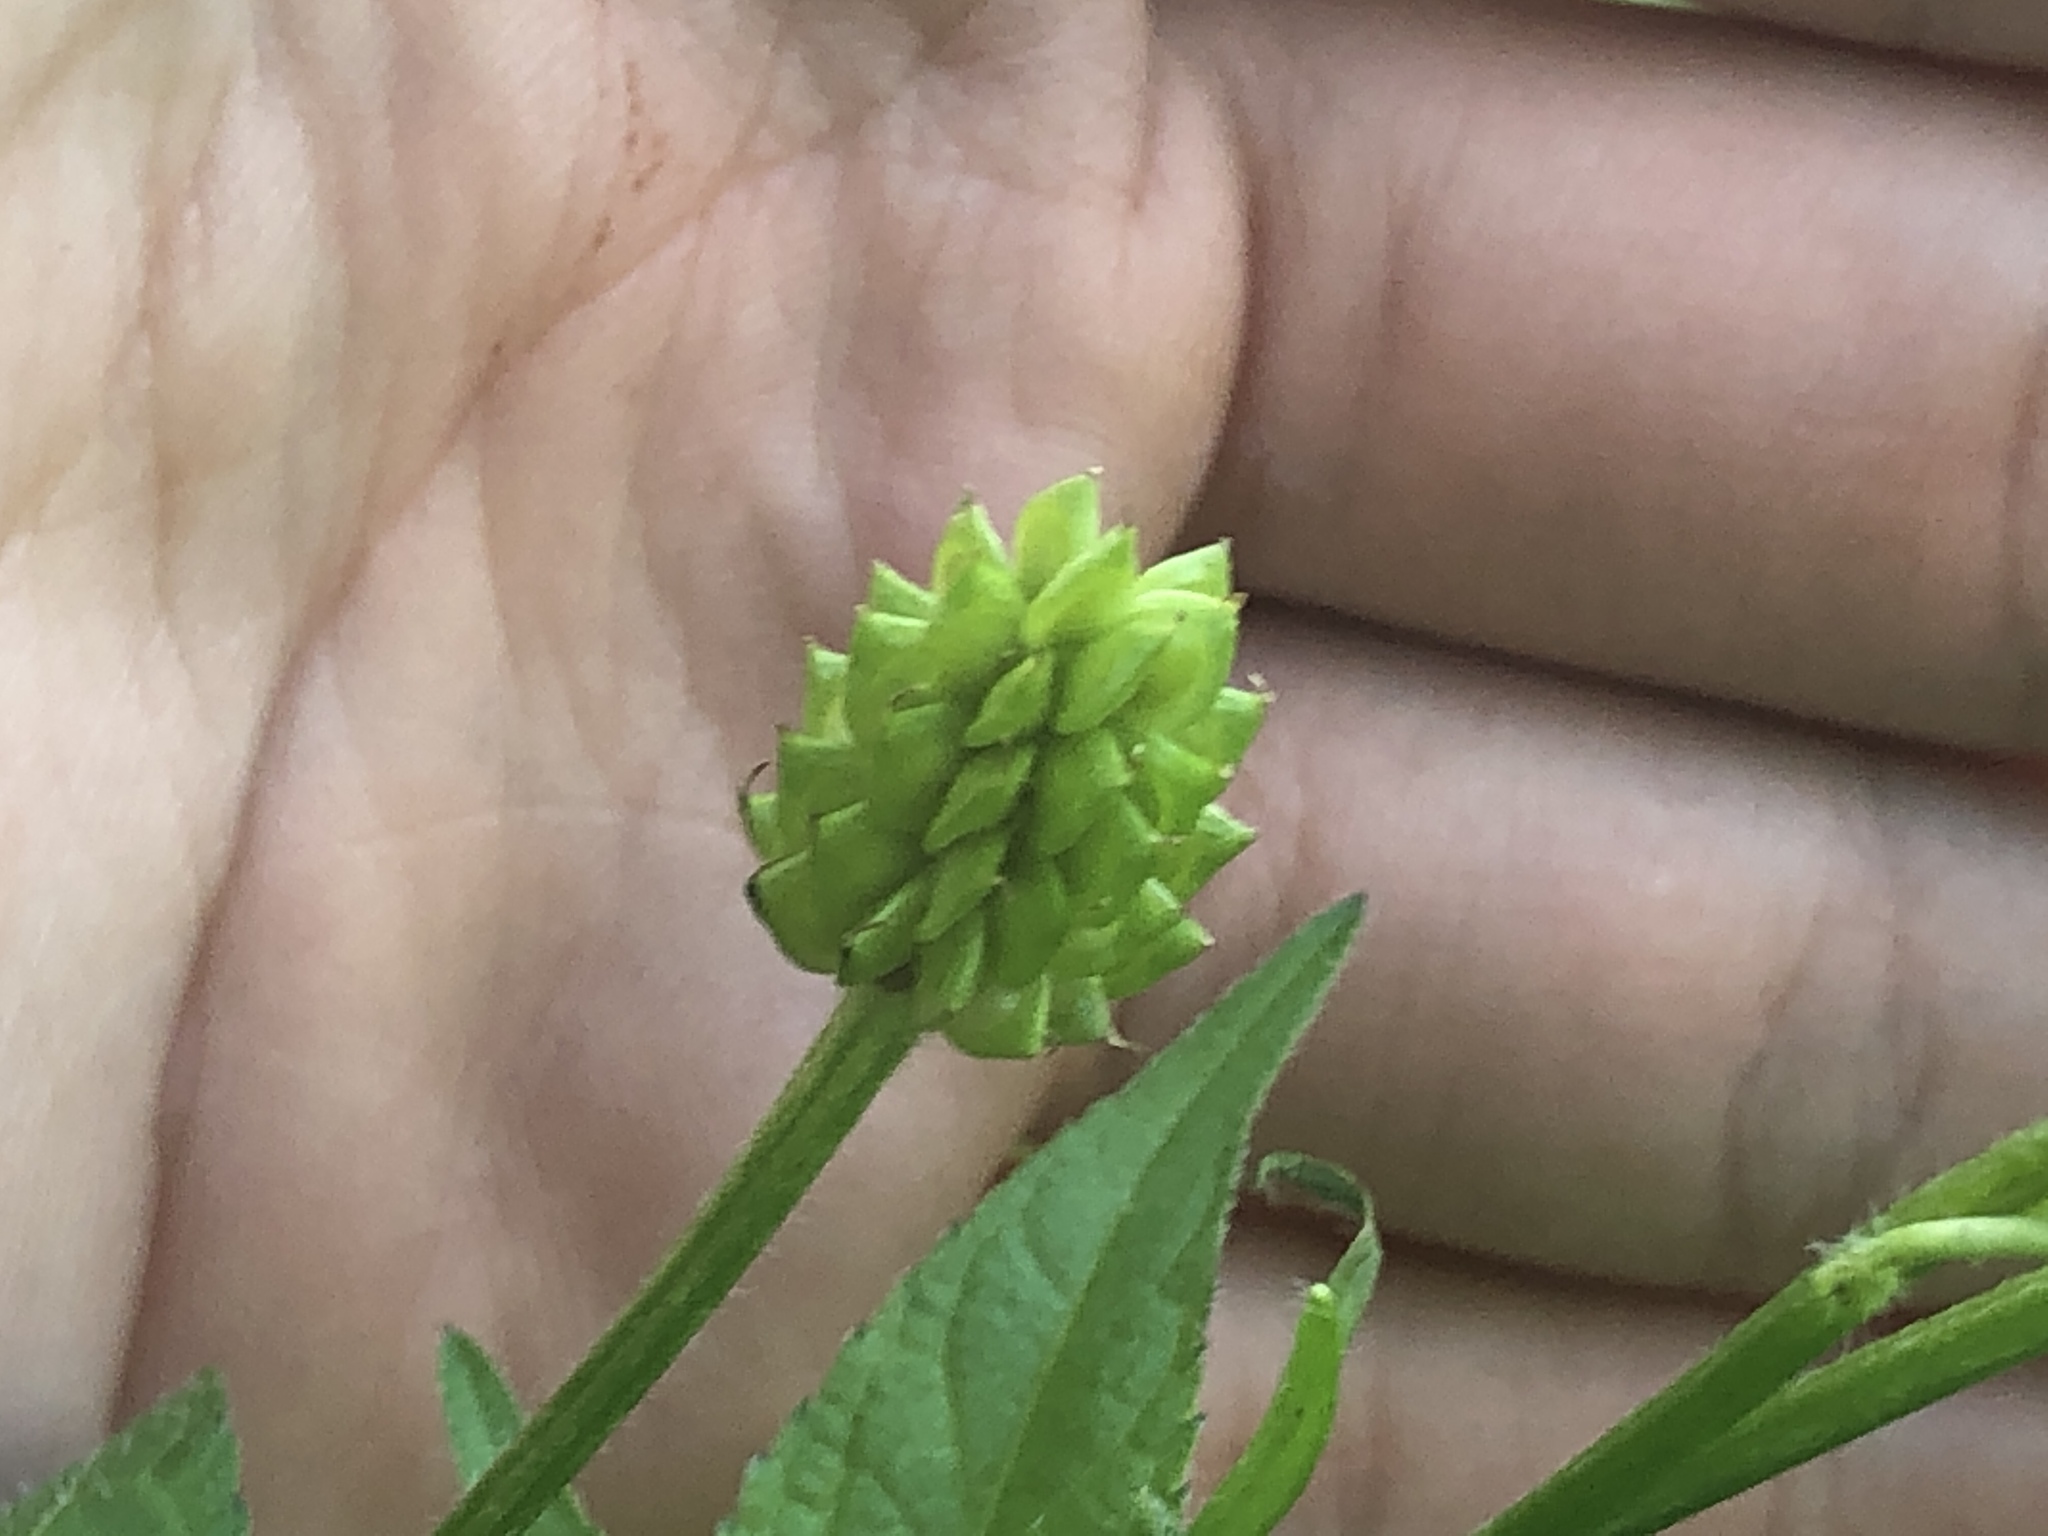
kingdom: Plantae
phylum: Tracheophyta
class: Magnoliopsida
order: Ranunculales
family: Ranunculaceae
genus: Ranunculus
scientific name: Ranunculus sceleratus
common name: Celery-leaved buttercup
